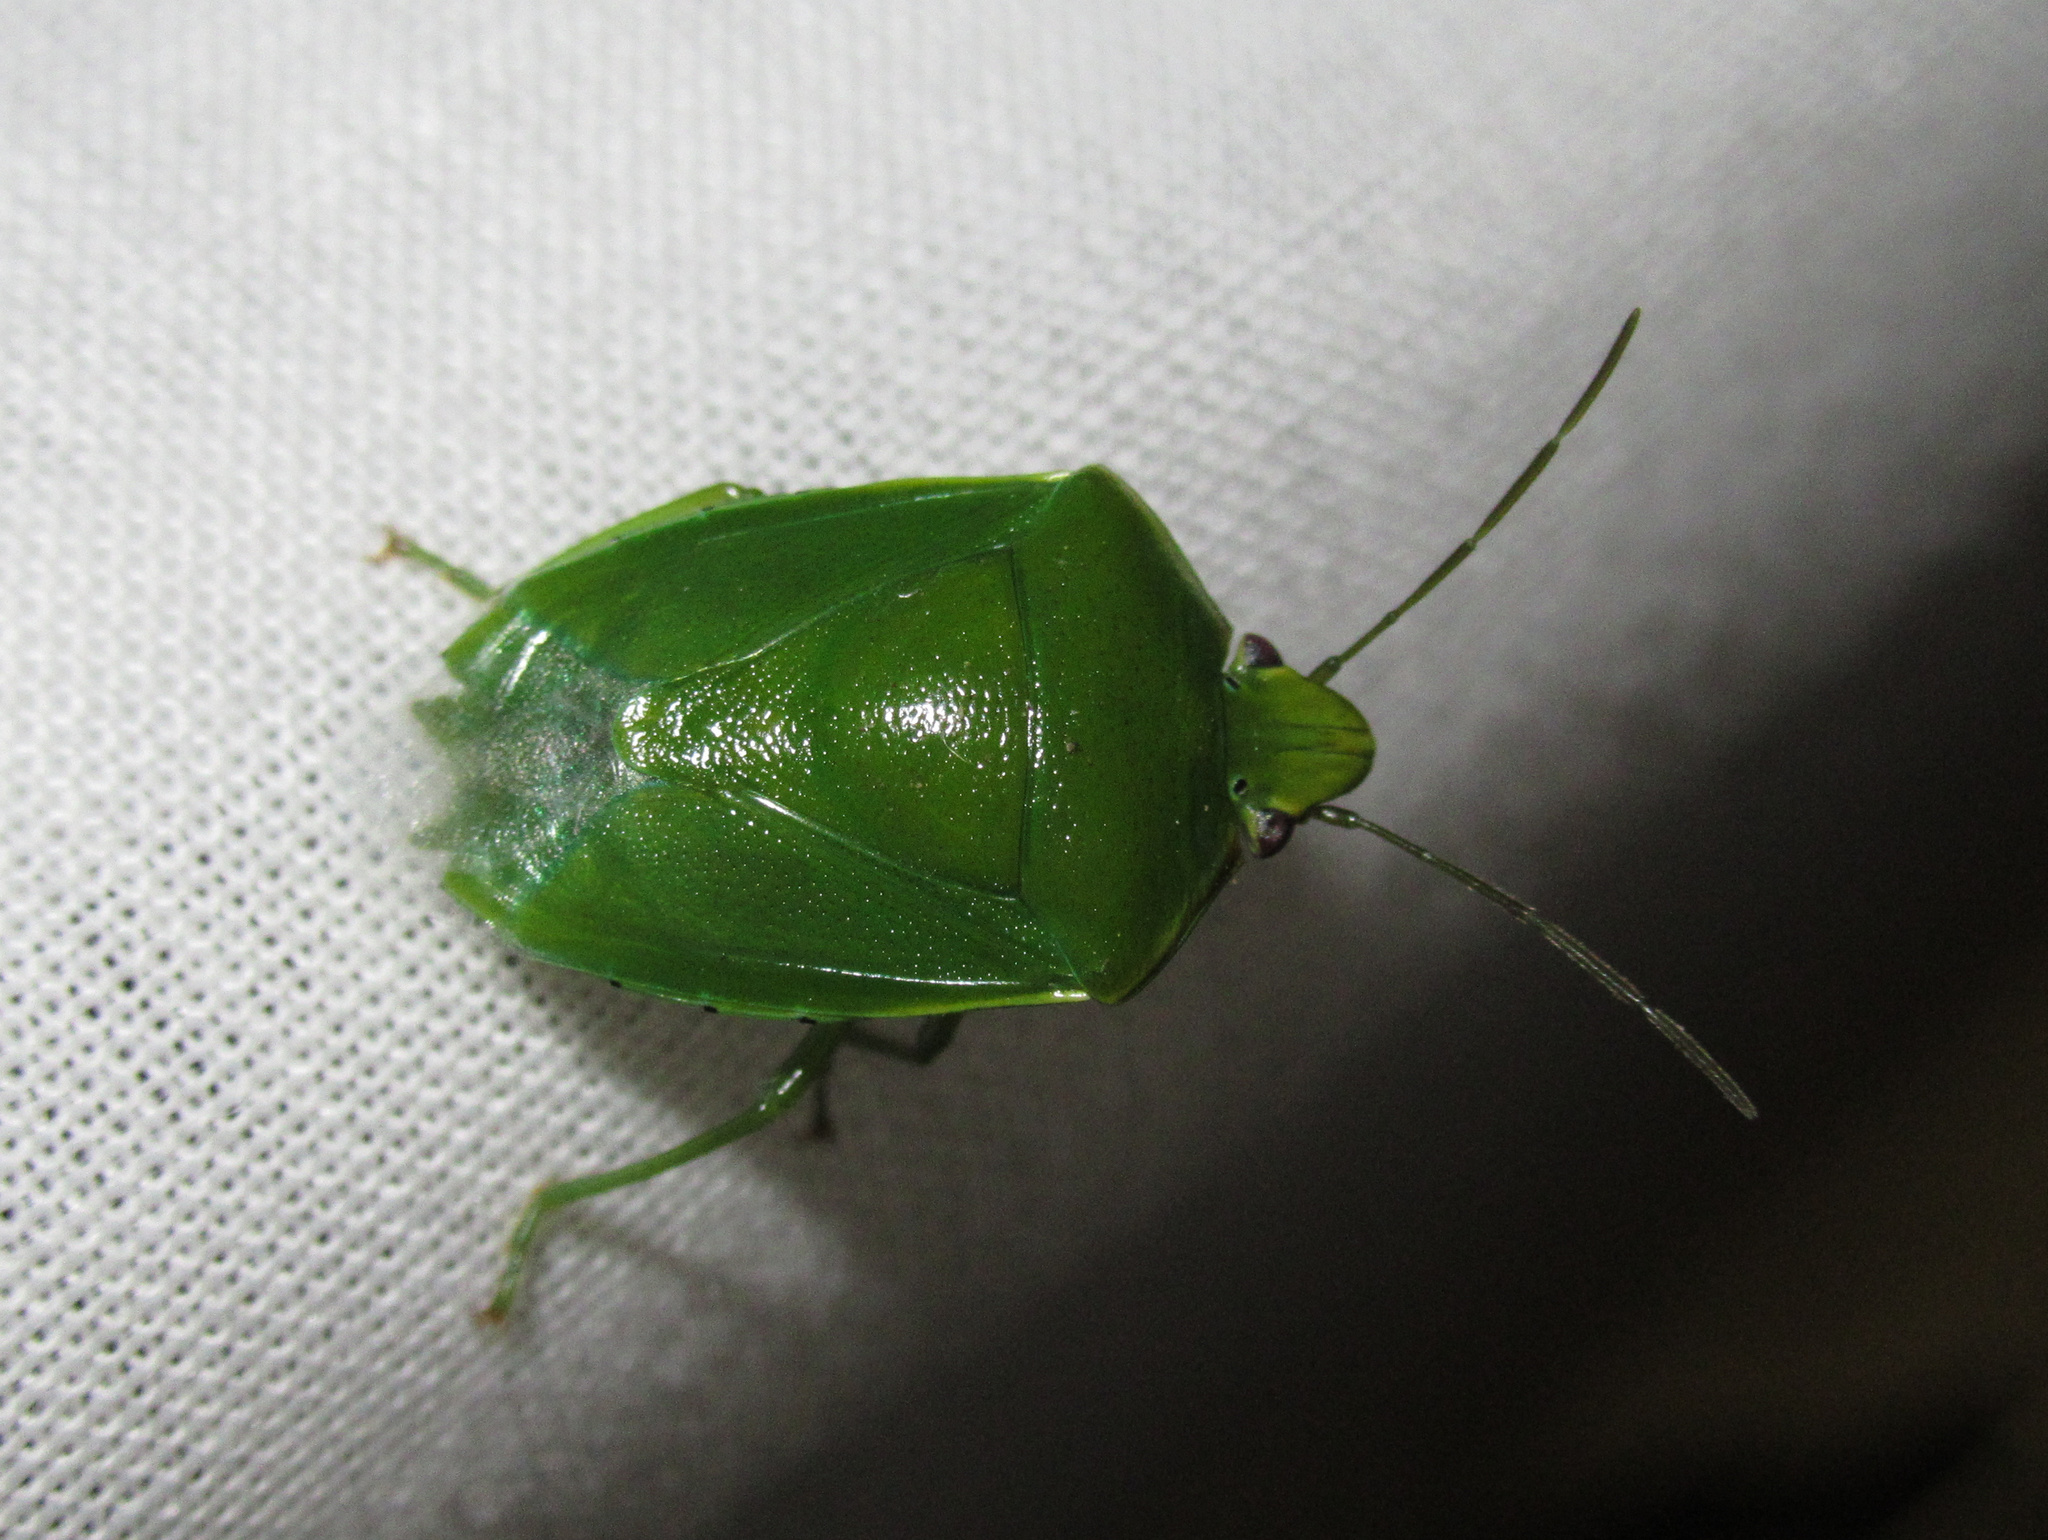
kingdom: Animalia
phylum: Arthropoda
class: Insecta
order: Hemiptera
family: Pentatomidae
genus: Glaucias
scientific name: Glaucias amyota
